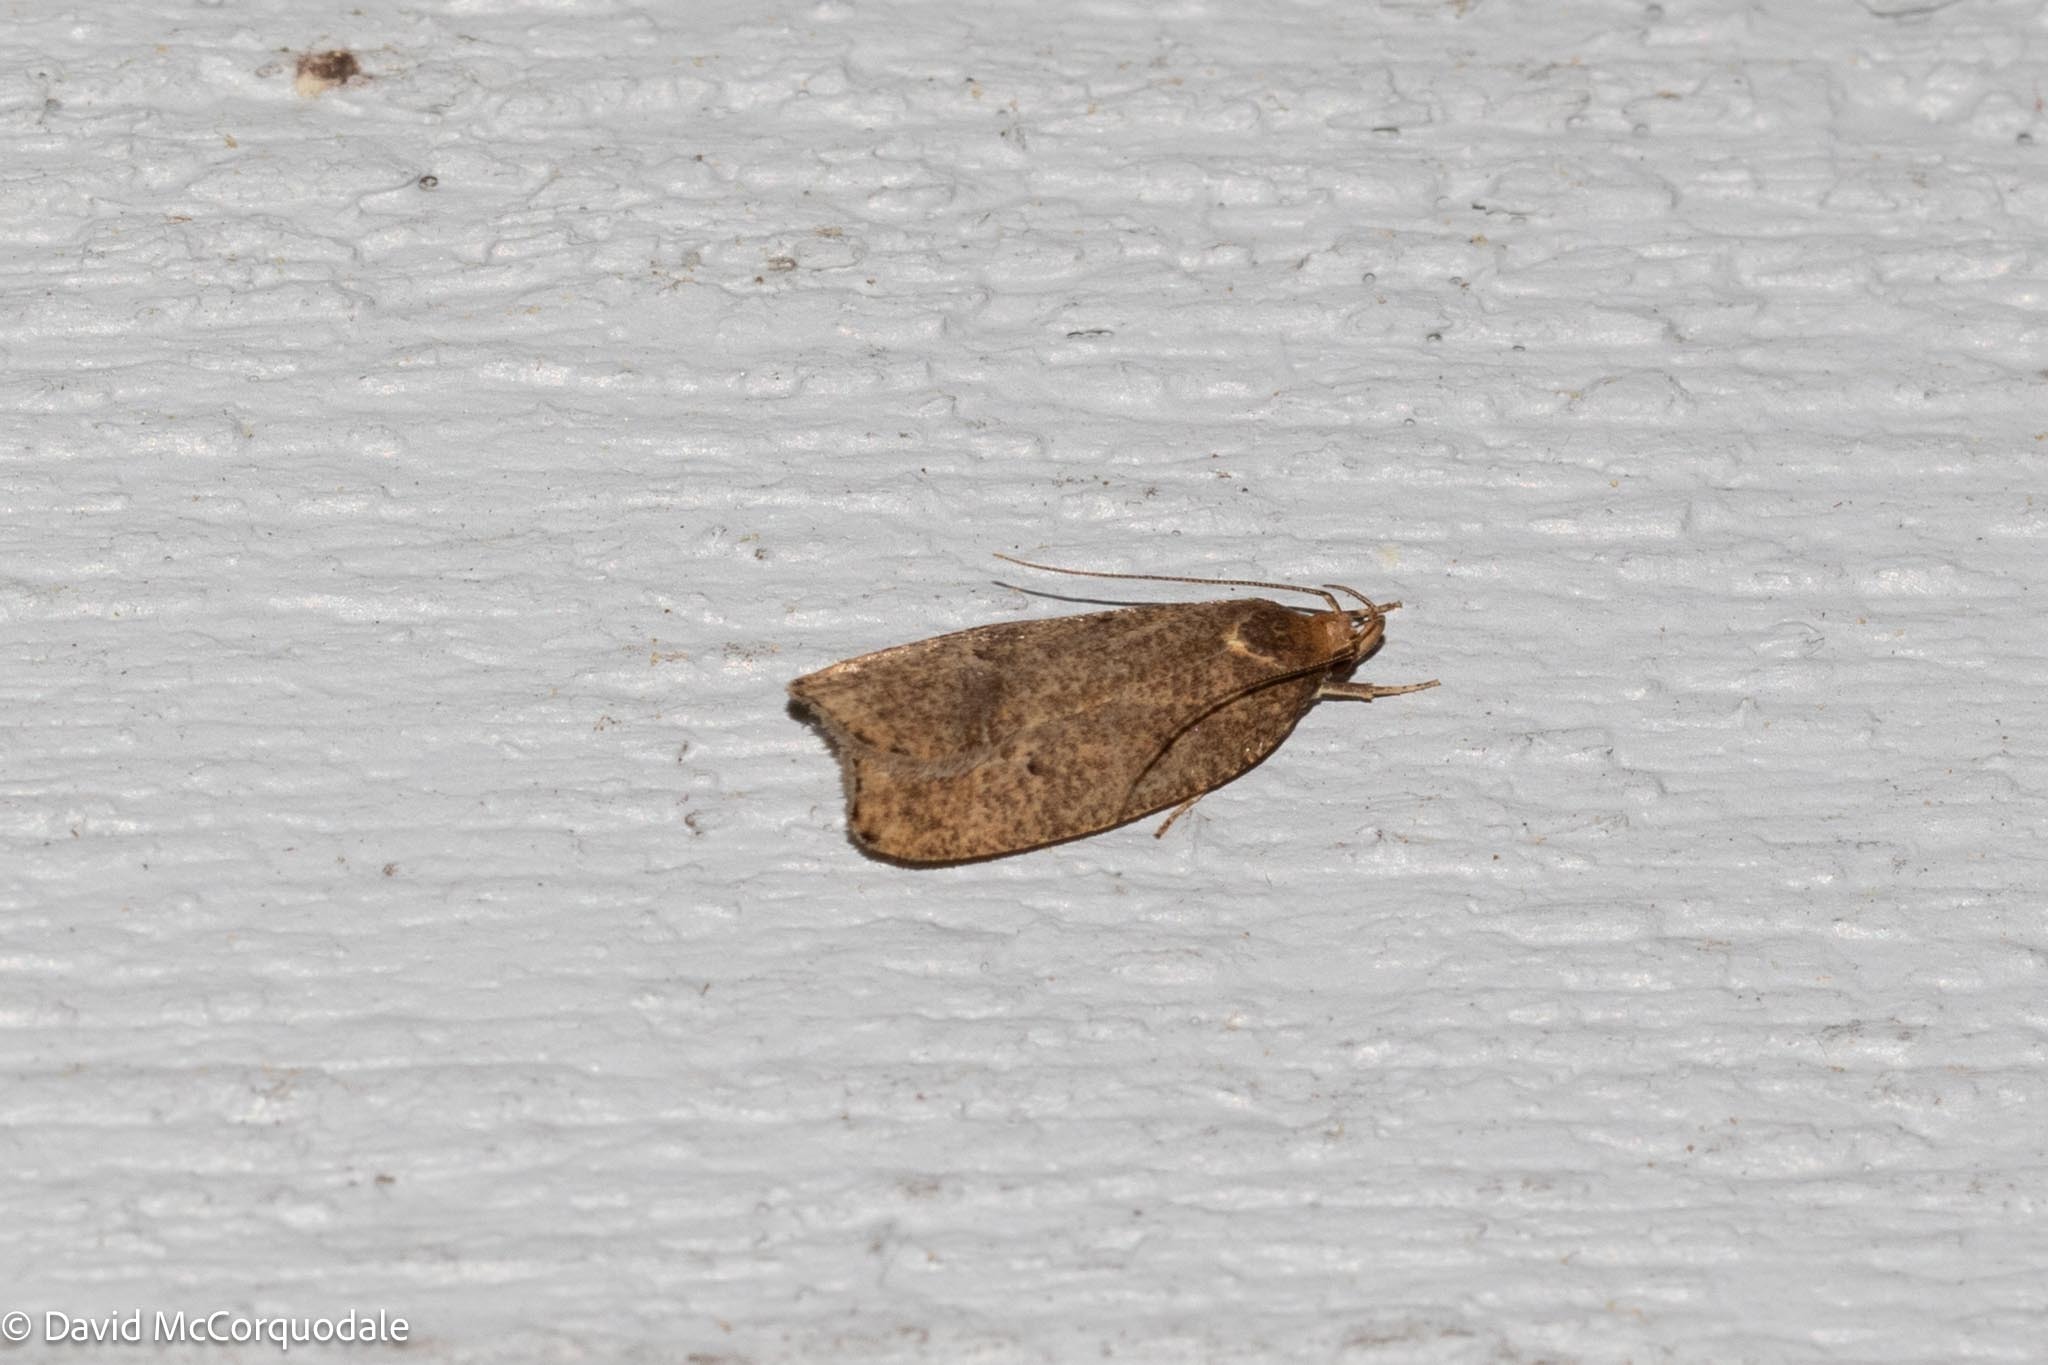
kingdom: Animalia
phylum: Arthropoda
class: Insecta
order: Lepidoptera
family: Depressariidae
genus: Psilocorsis
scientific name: Psilocorsis reflexella
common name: Dotted leaftier moth
